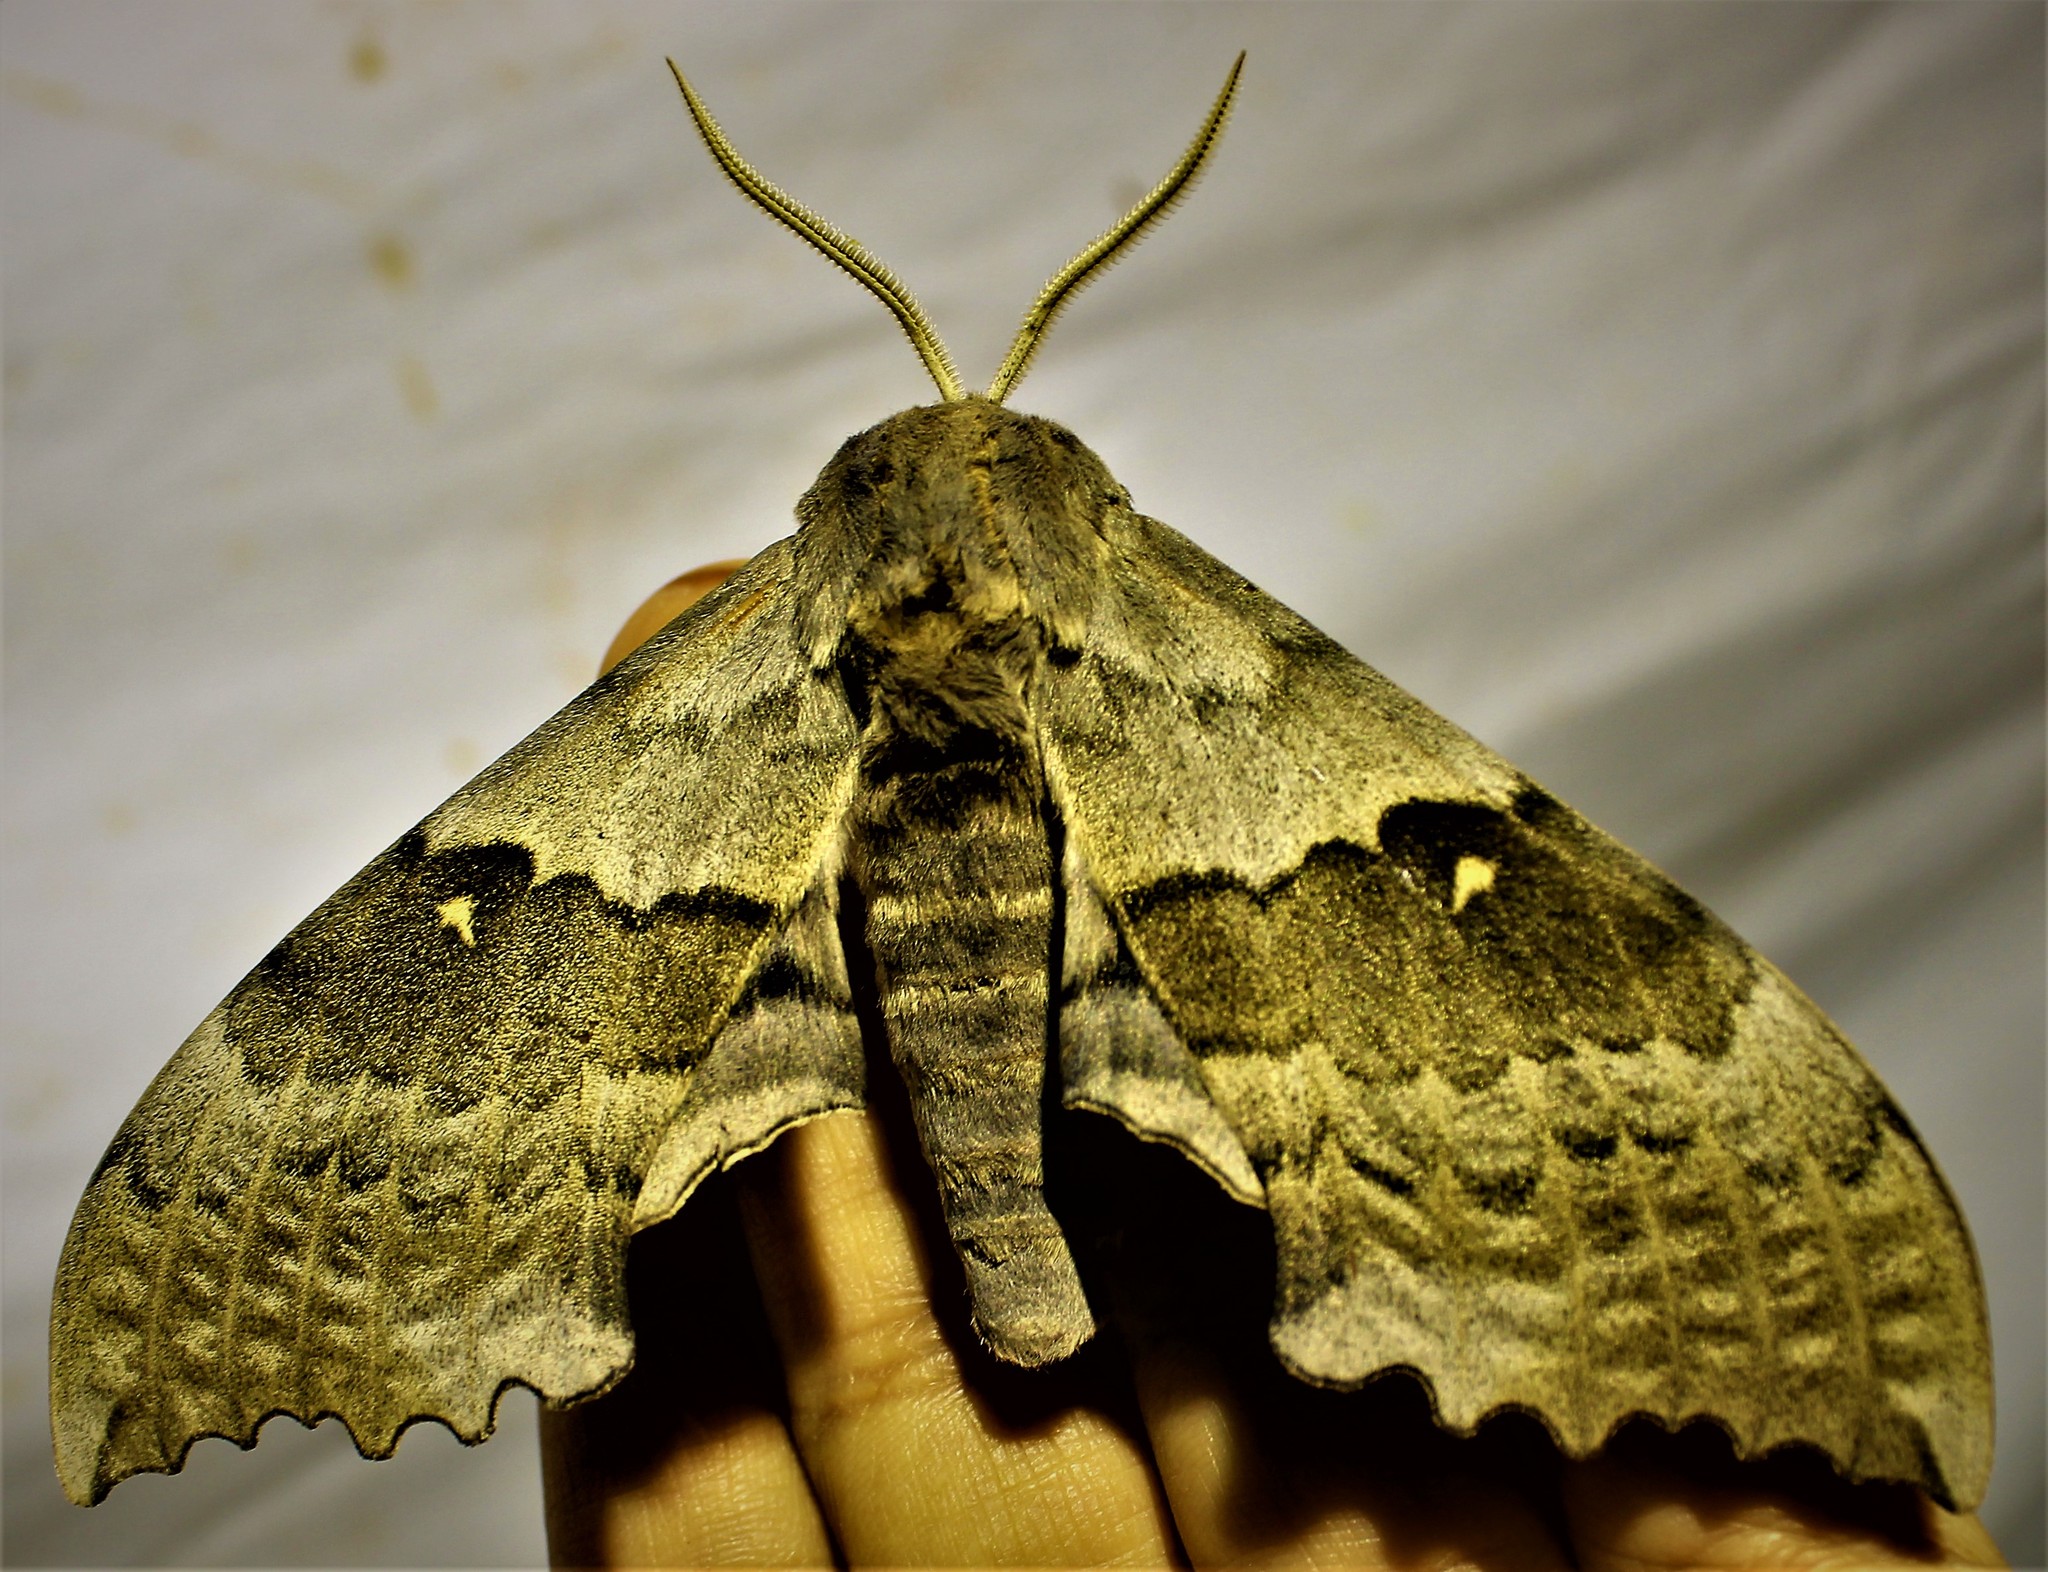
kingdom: Animalia
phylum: Arthropoda
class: Insecta
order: Lepidoptera
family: Sphingidae
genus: Pachysphinx
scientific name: Pachysphinx modesta
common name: Big poplar sphinx
